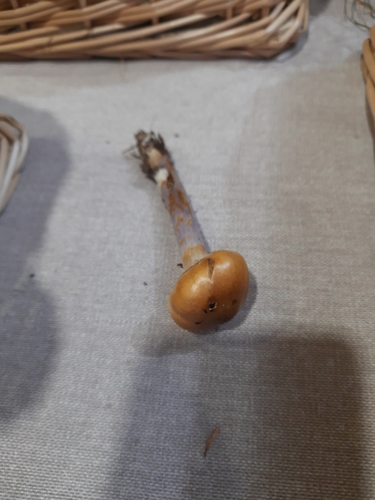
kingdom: Fungi
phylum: Basidiomycota
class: Agaricomycetes
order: Agaricales
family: Cortinariaceae
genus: Cortinarius
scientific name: Cortinarius
